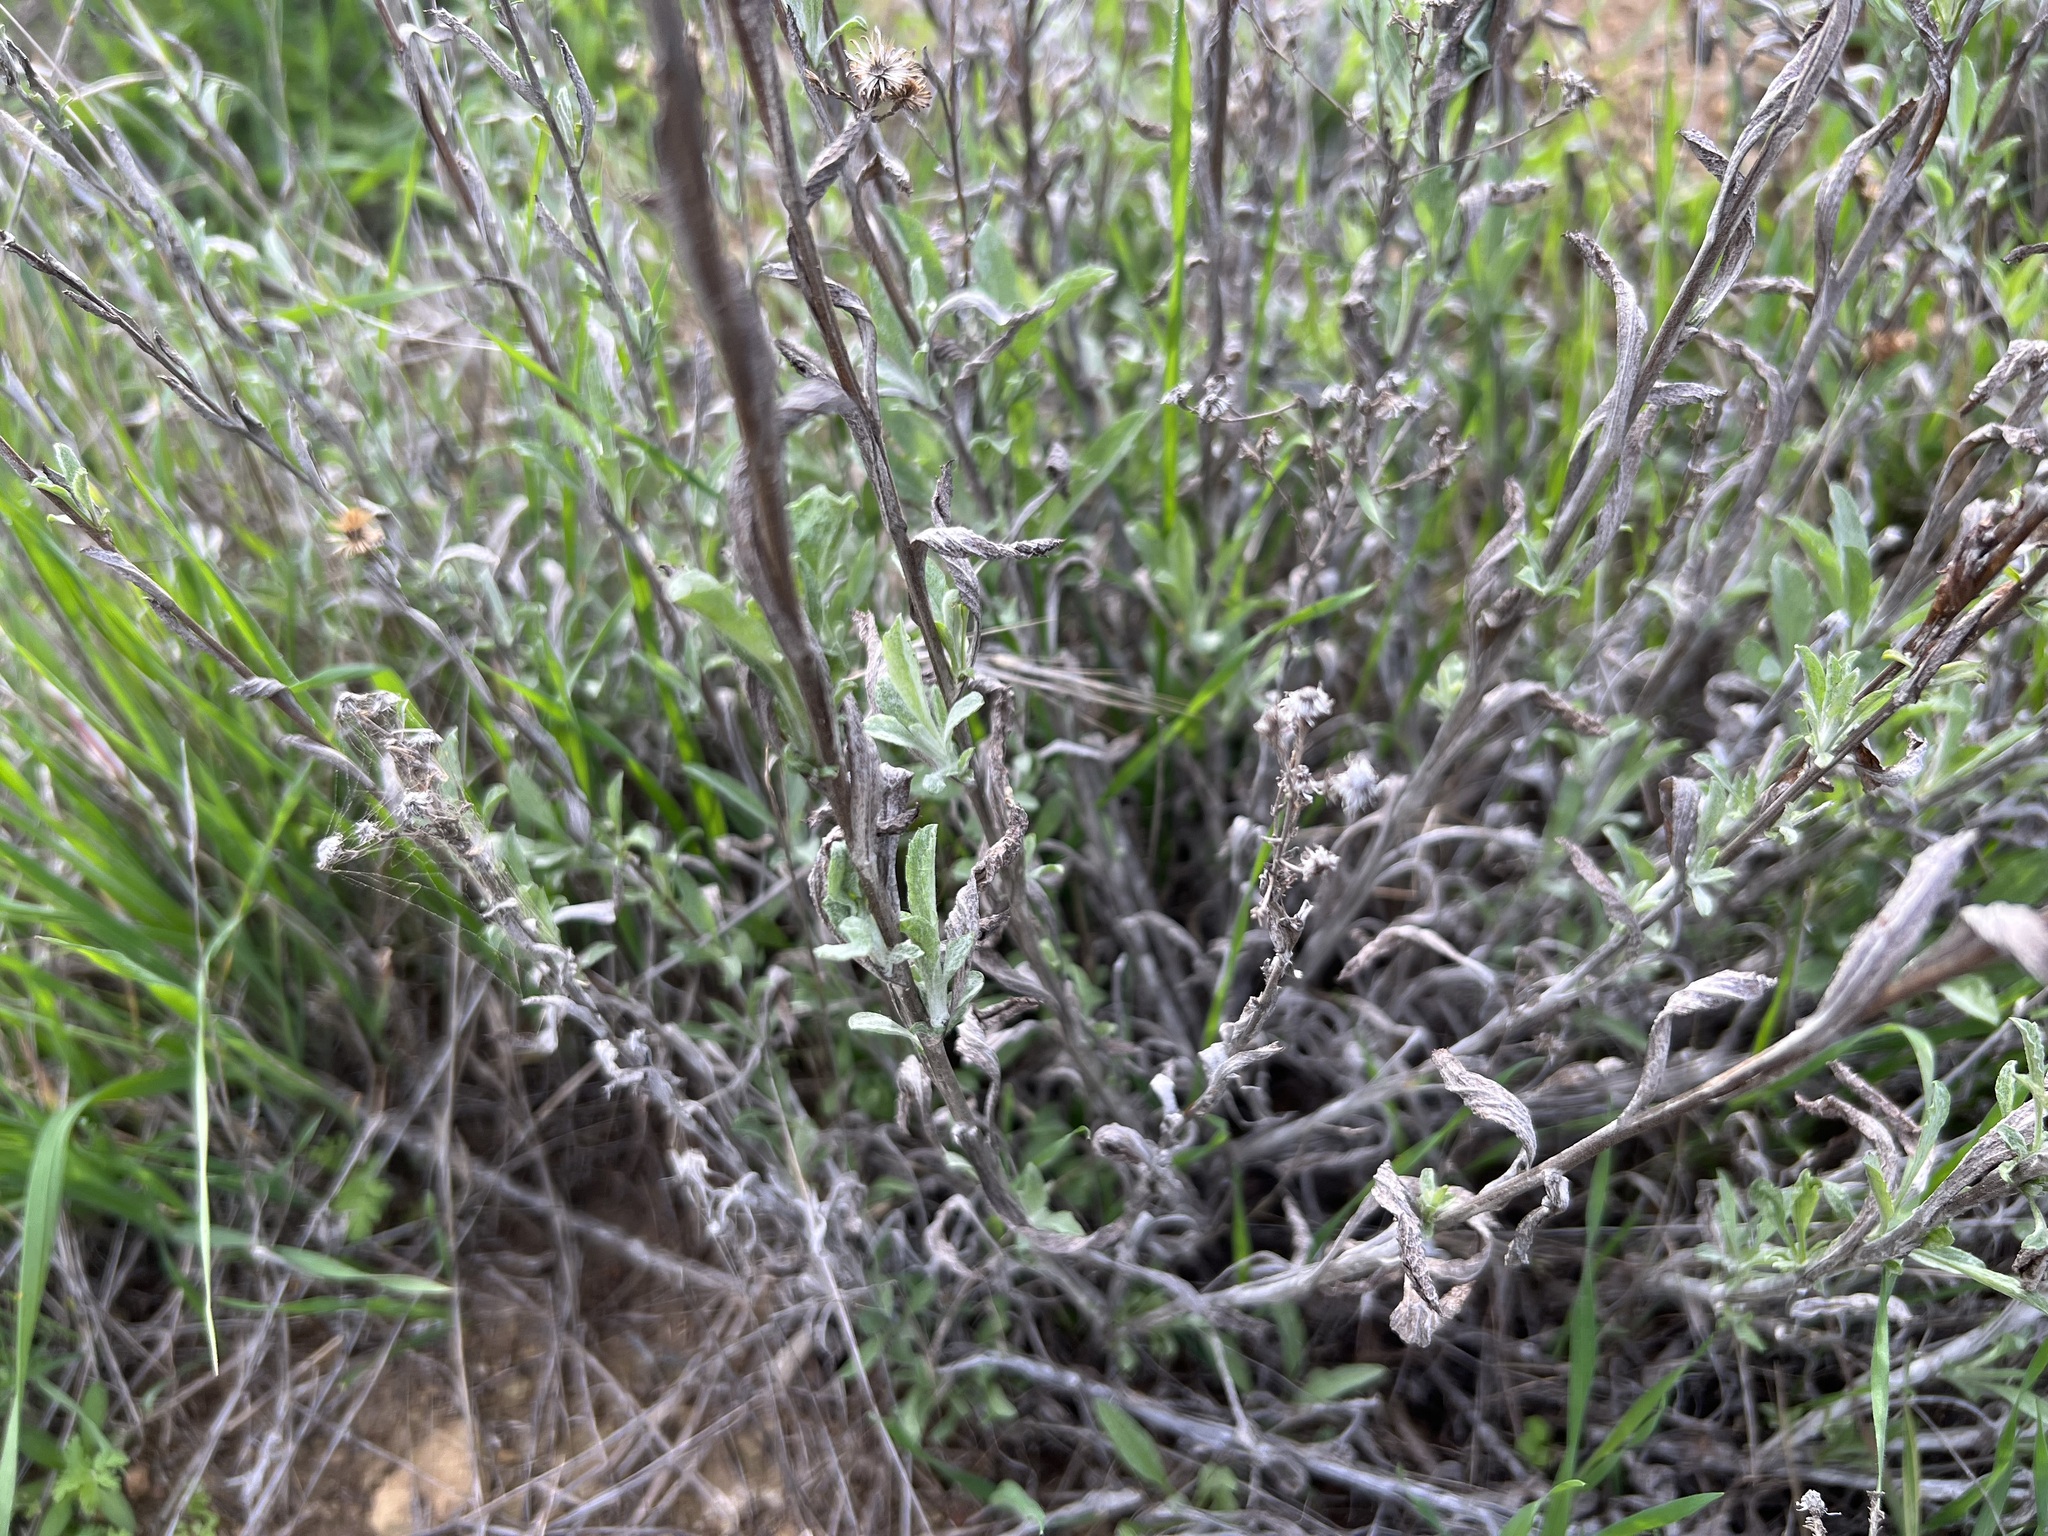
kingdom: Plantae
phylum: Tracheophyta
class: Magnoliopsida
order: Asterales
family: Asteraceae
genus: Corethrogyne
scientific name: Corethrogyne filaginifolia
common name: Sand-aster
